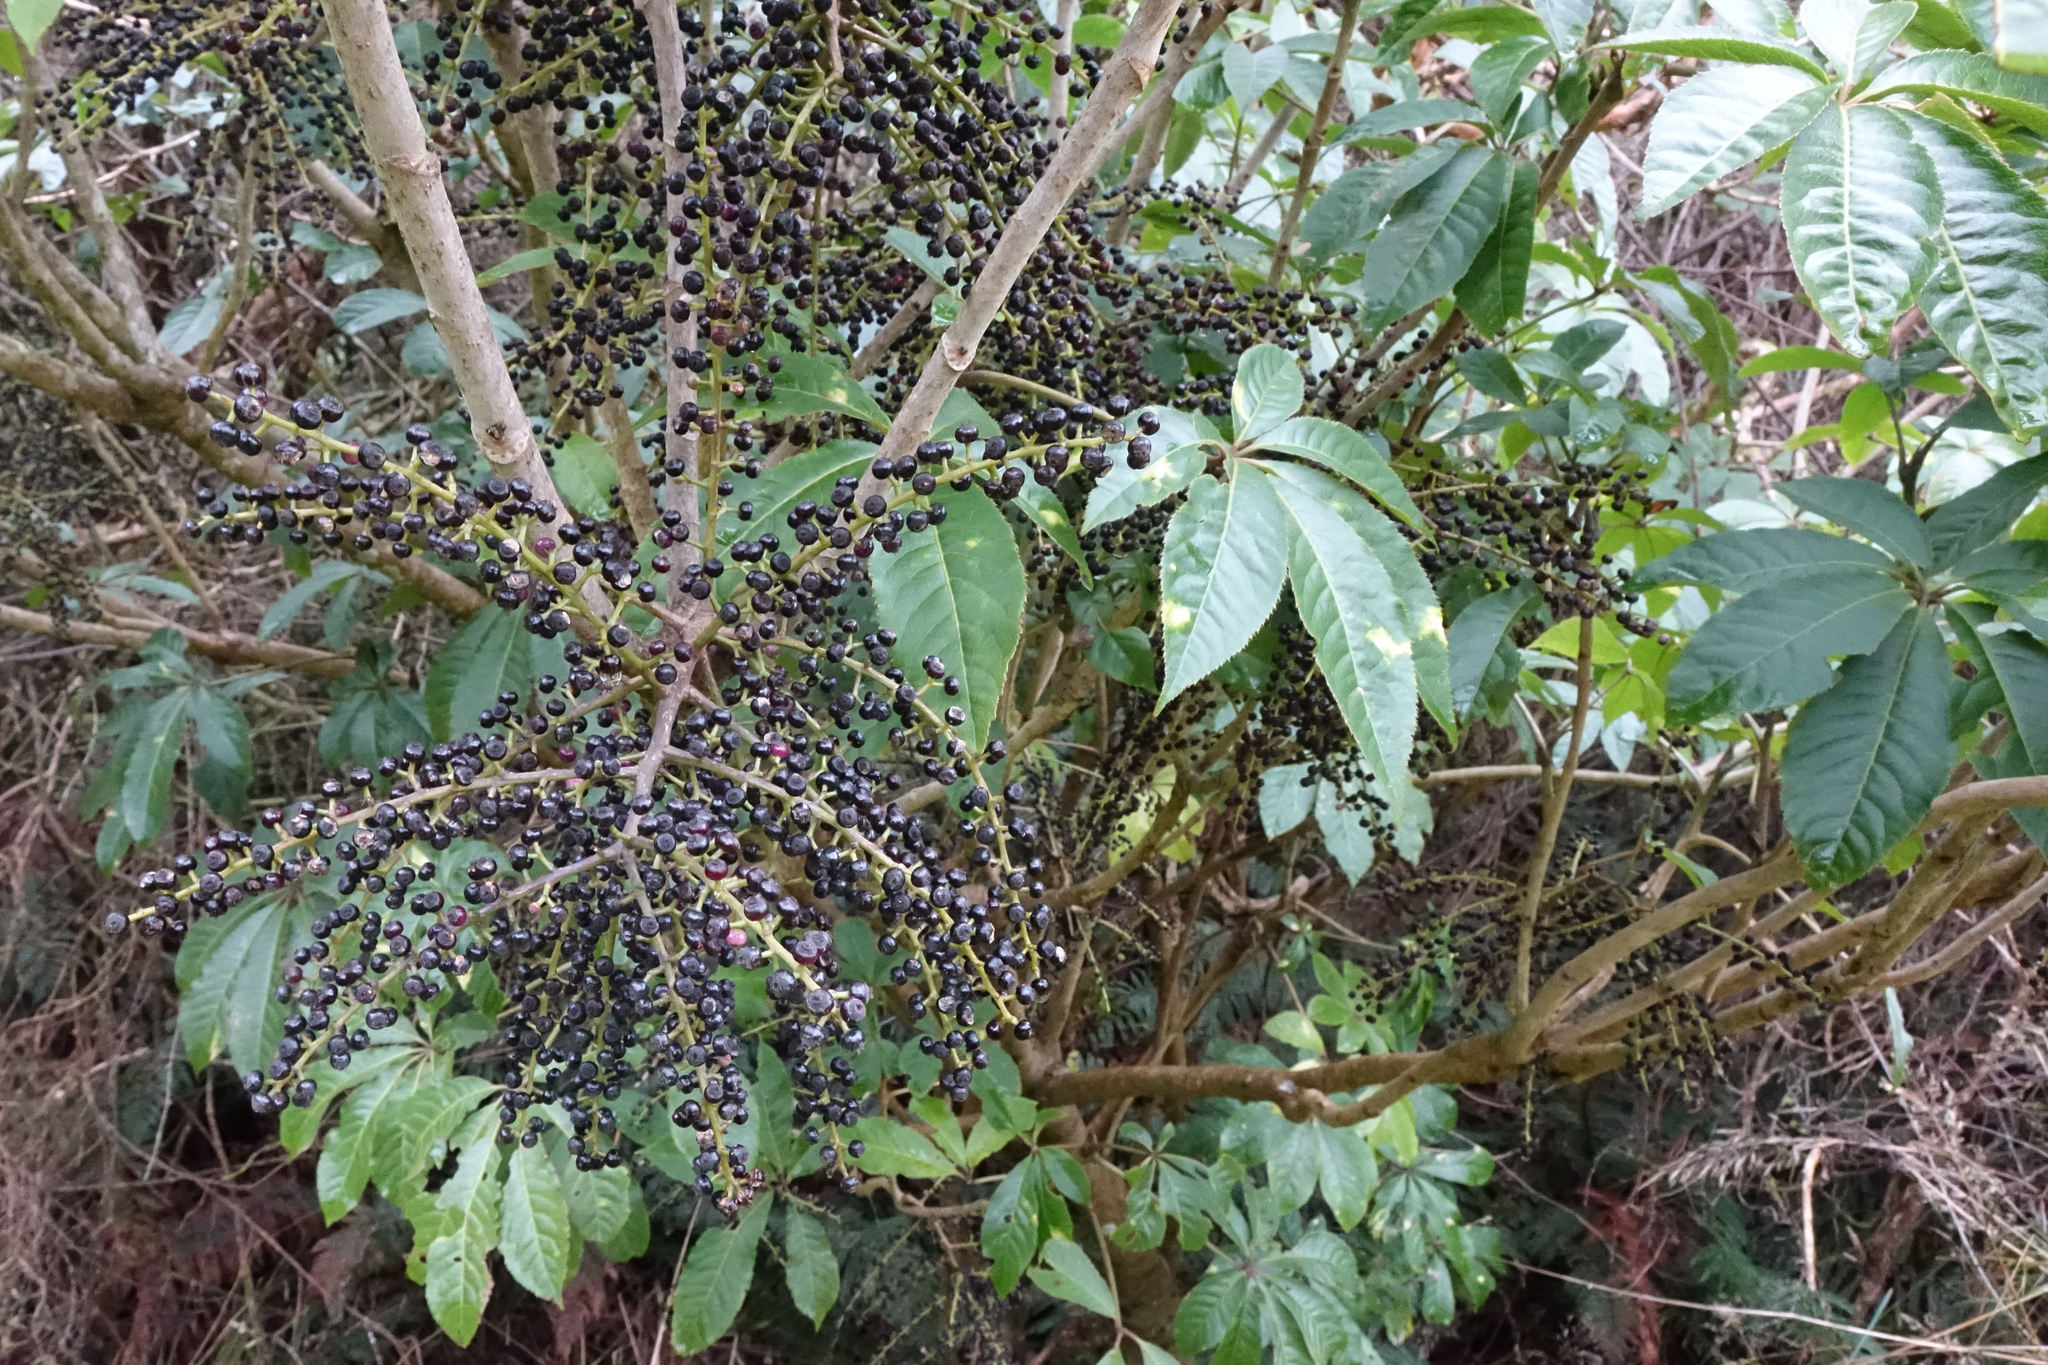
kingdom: Plantae
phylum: Tracheophyta
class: Magnoliopsida
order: Apiales
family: Araliaceae
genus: Schefflera
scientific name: Schefflera digitata
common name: Pate
